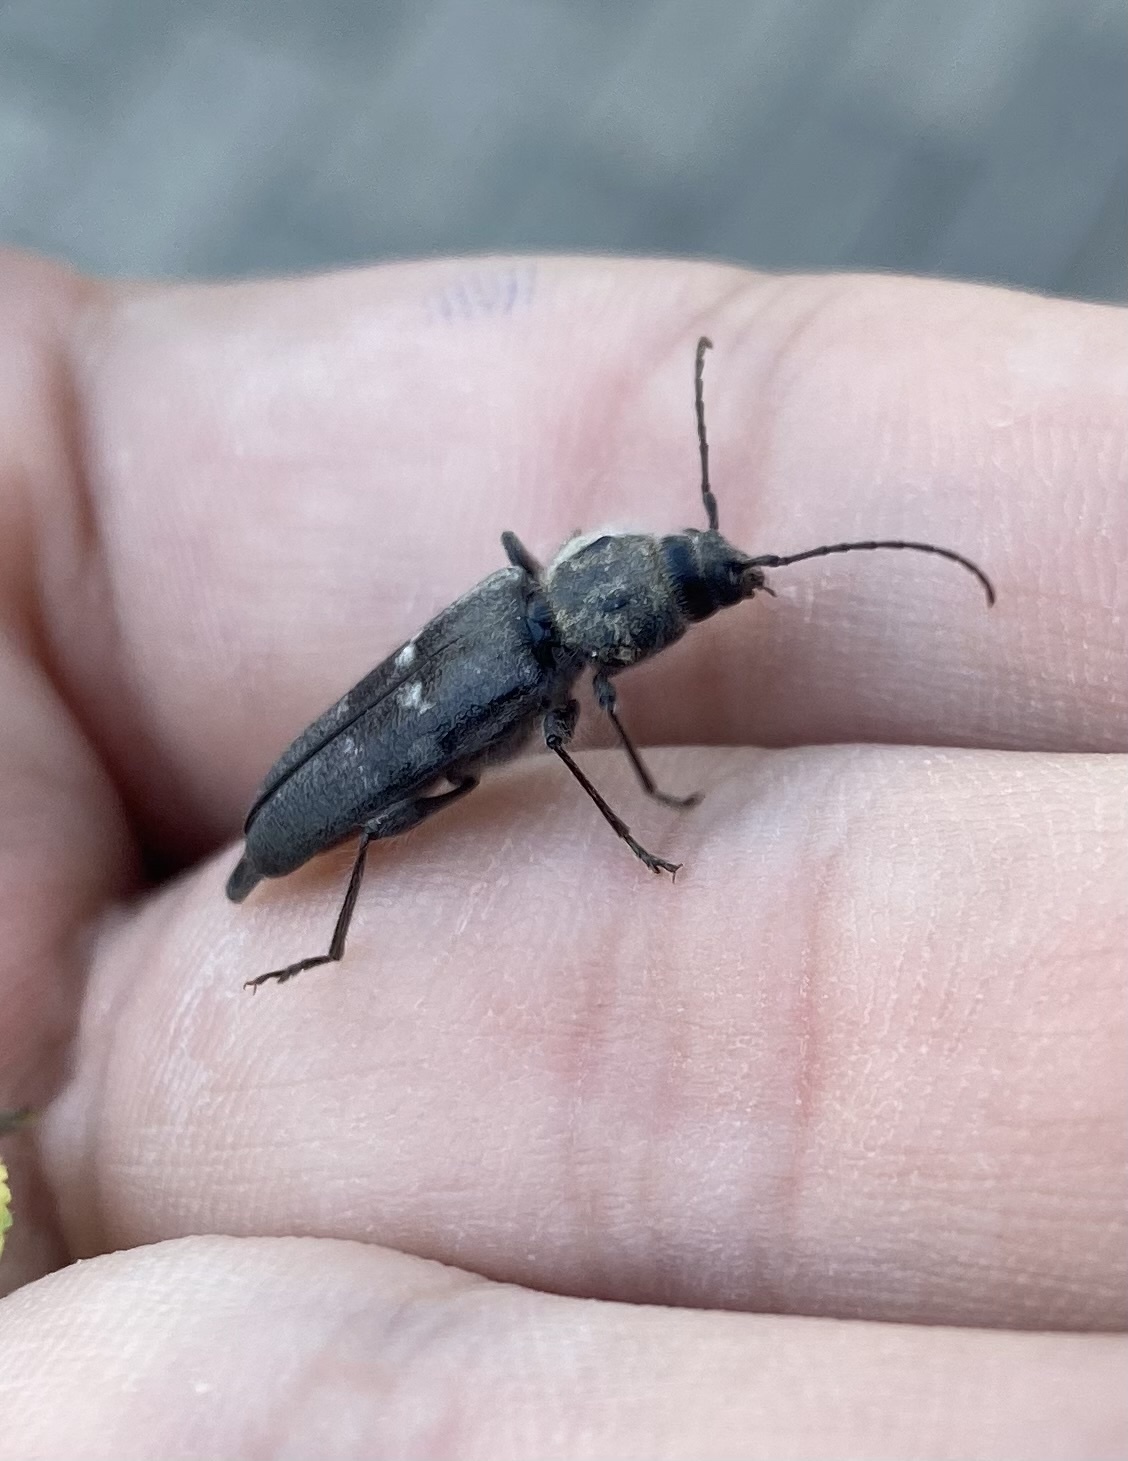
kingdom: Animalia
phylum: Arthropoda
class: Insecta
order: Coleoptera
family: Cerambycidae
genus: Hylotrupes
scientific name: Hylotrupes bajulus
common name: Old house borer
